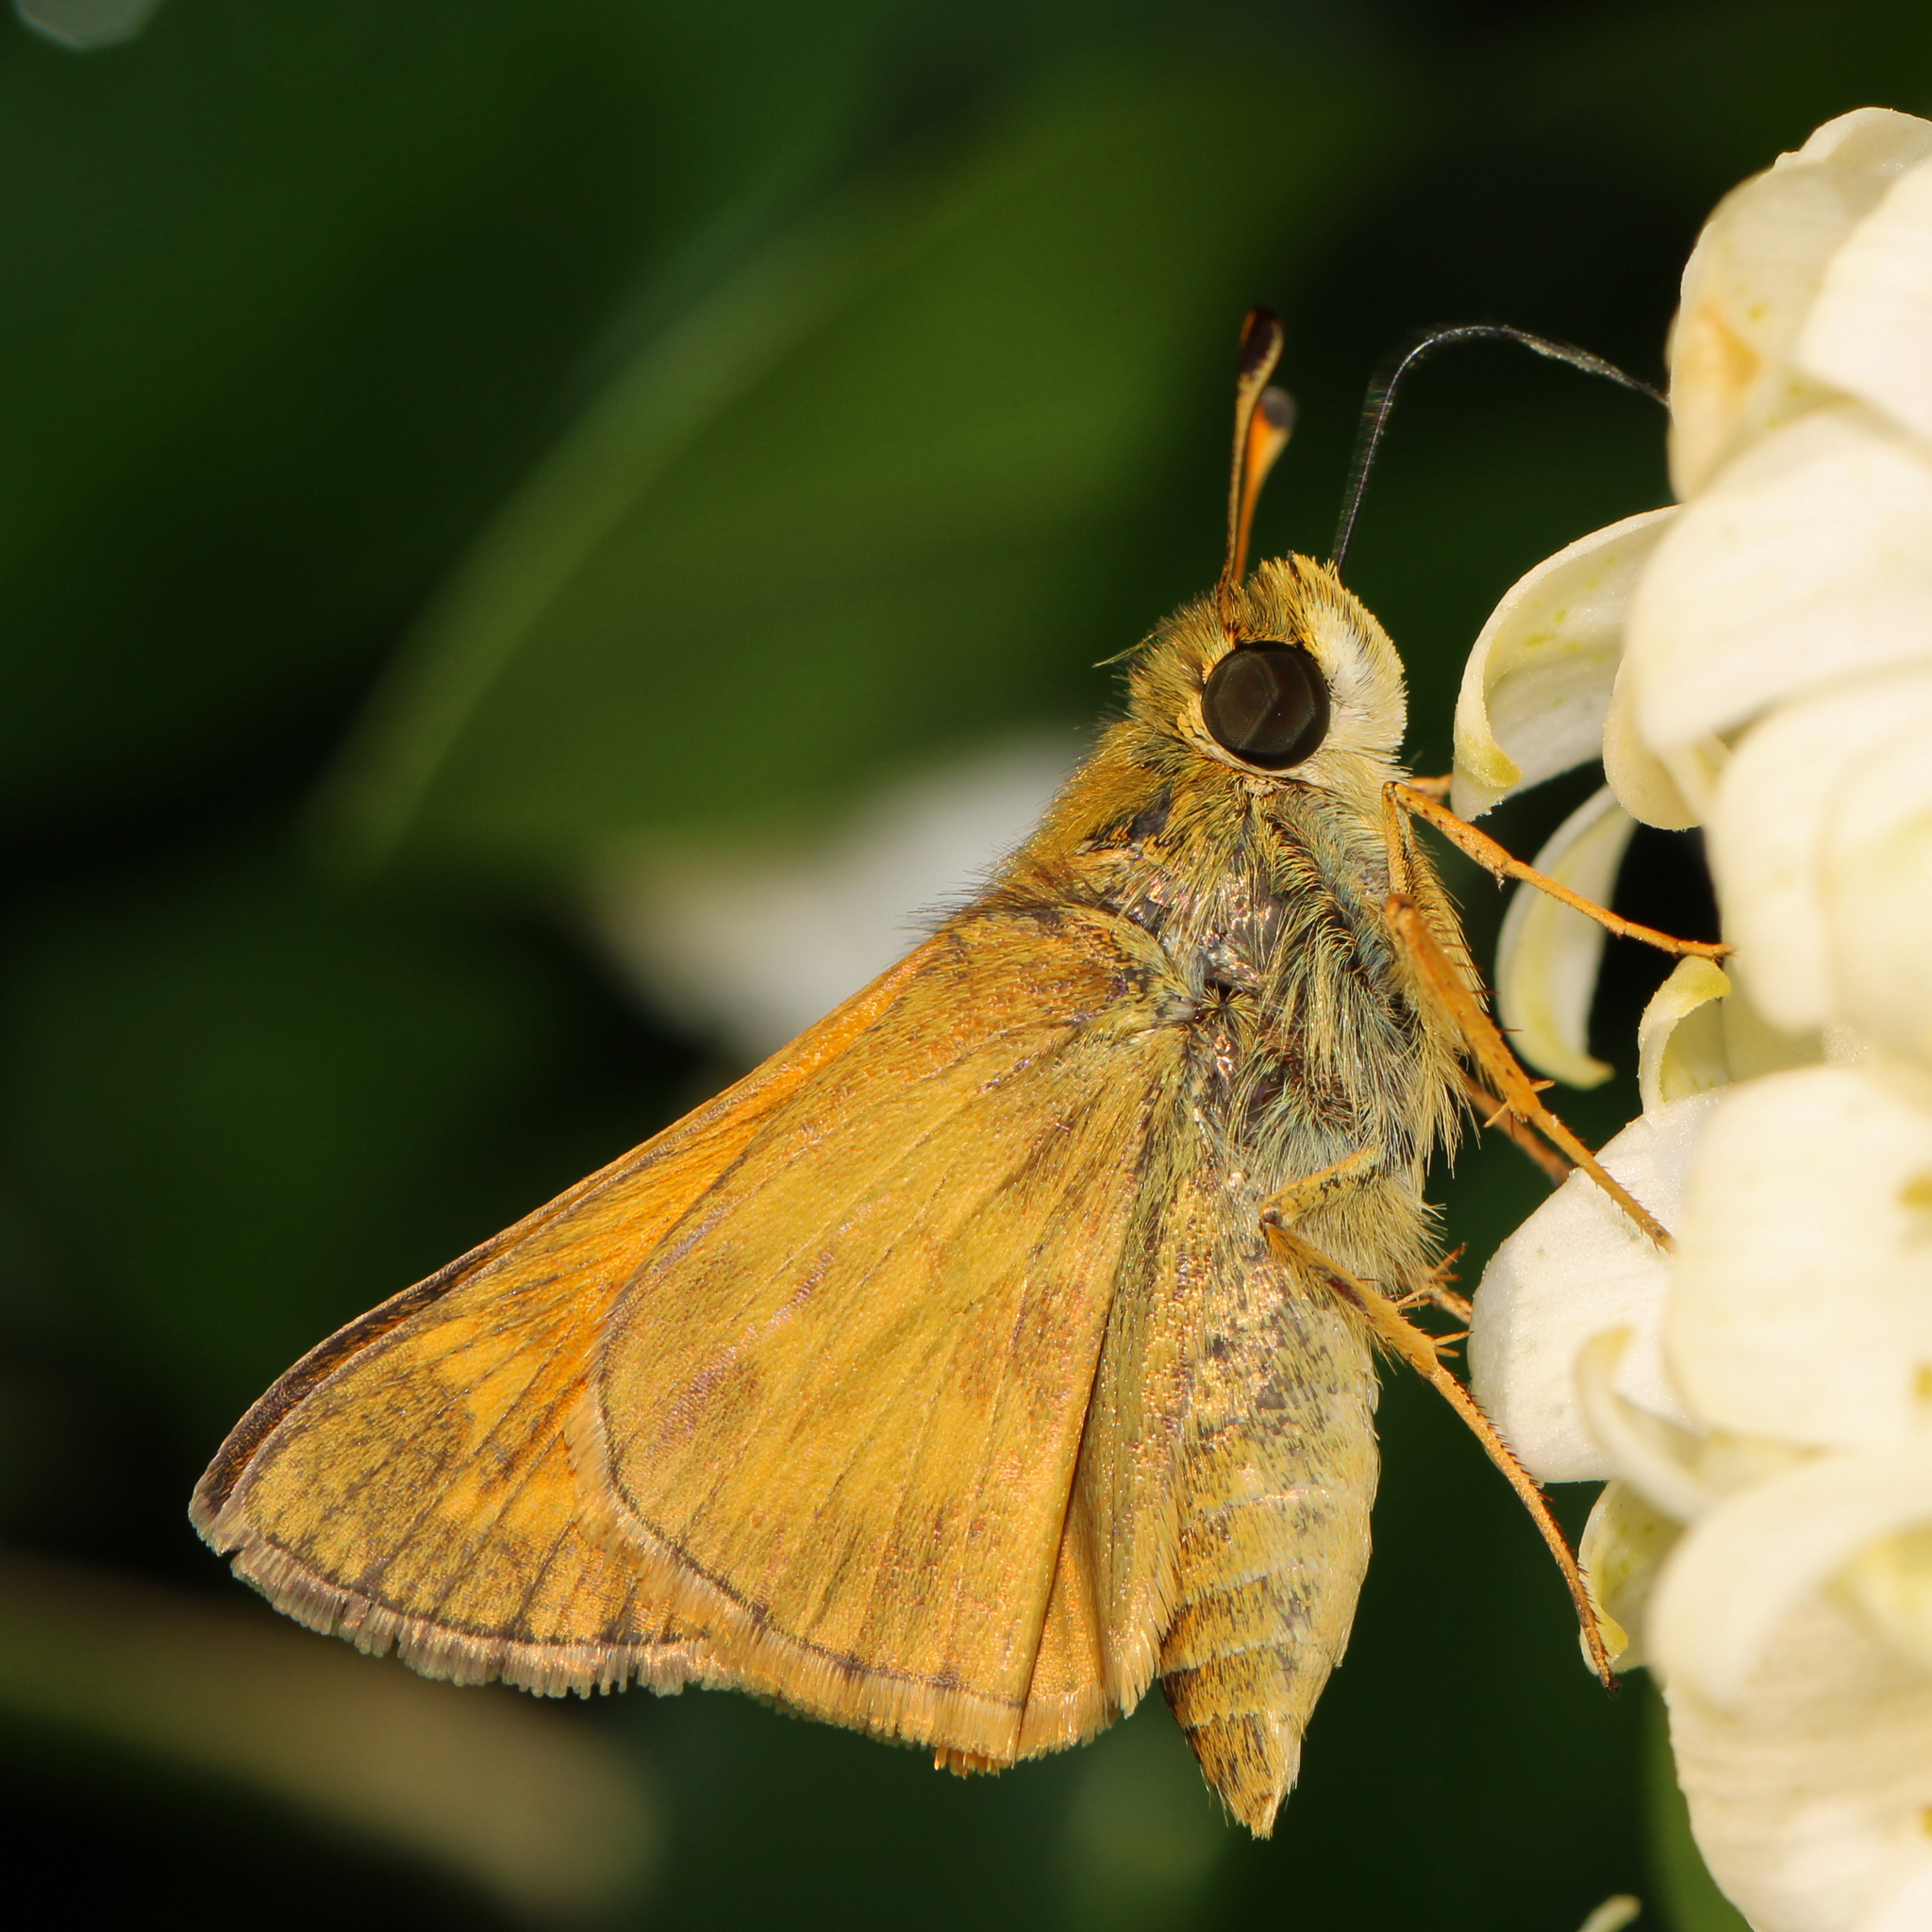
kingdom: Animalia
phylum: Arthropoda
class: Insecta
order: Lepidoptera
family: Hesperiidae
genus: Atalopedes
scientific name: Atalopedes
